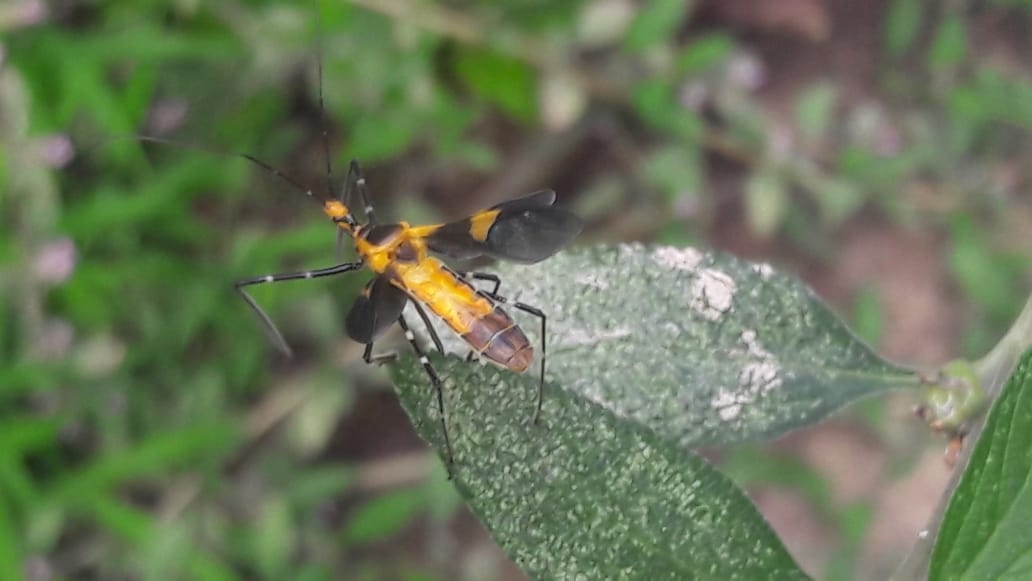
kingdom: Animalia
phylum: Arthropoda
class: Insecta
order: Hemiptera
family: Reduviidae
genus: Zelus
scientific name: Zelus longipes
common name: Milkweed assassin bug
